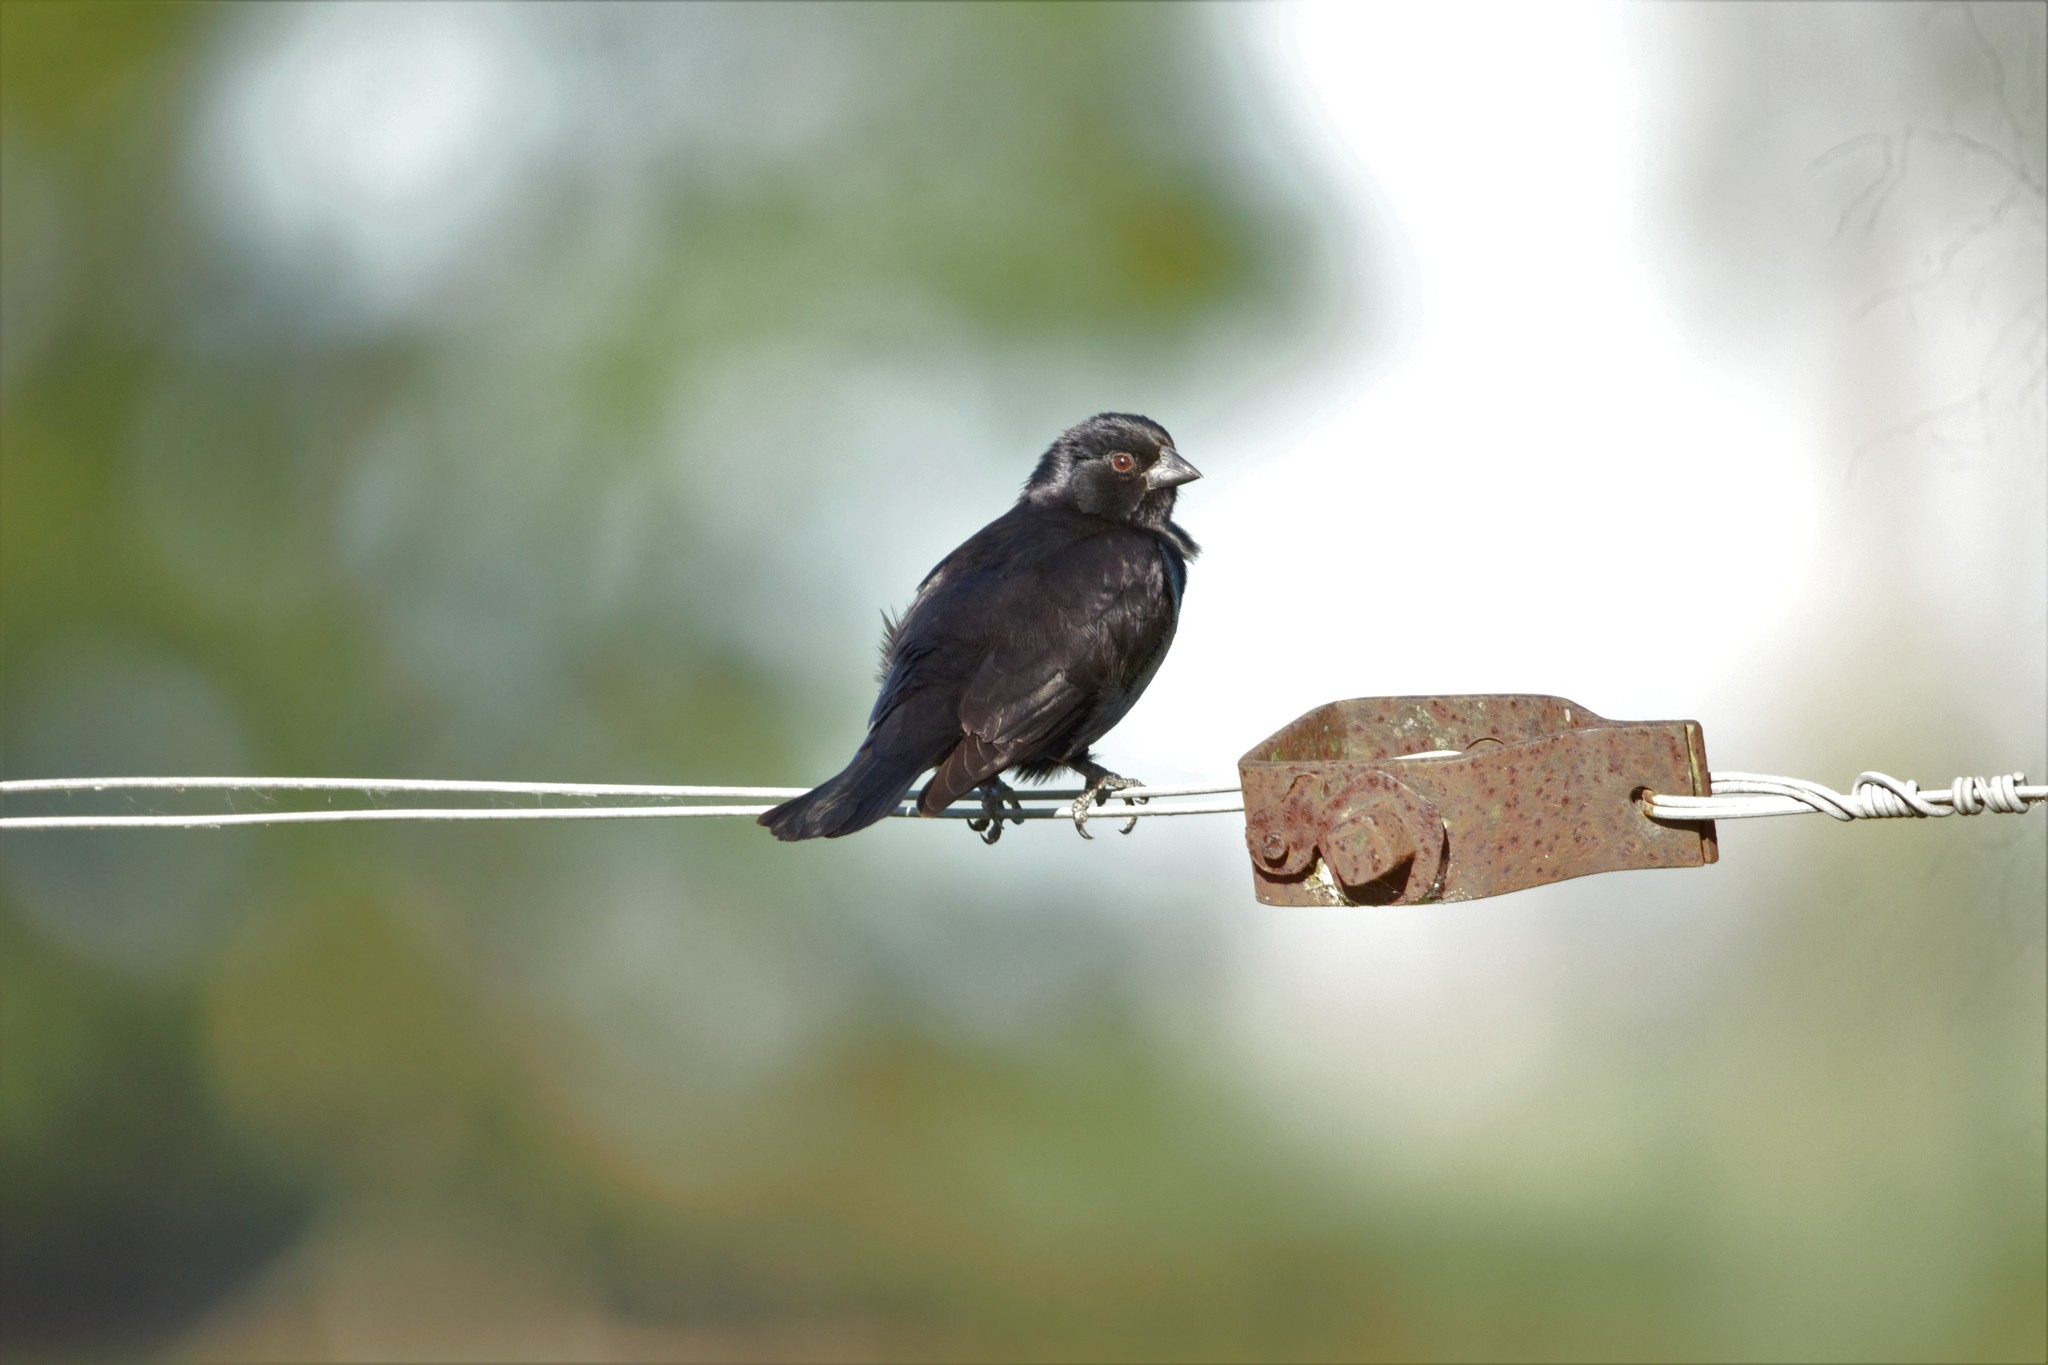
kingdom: Animalia
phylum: Chordata
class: Aves
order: Passeriformes
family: Icteridae
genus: Molothrus
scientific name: Molothrus rufoaxillaris
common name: Screaming cowbird
